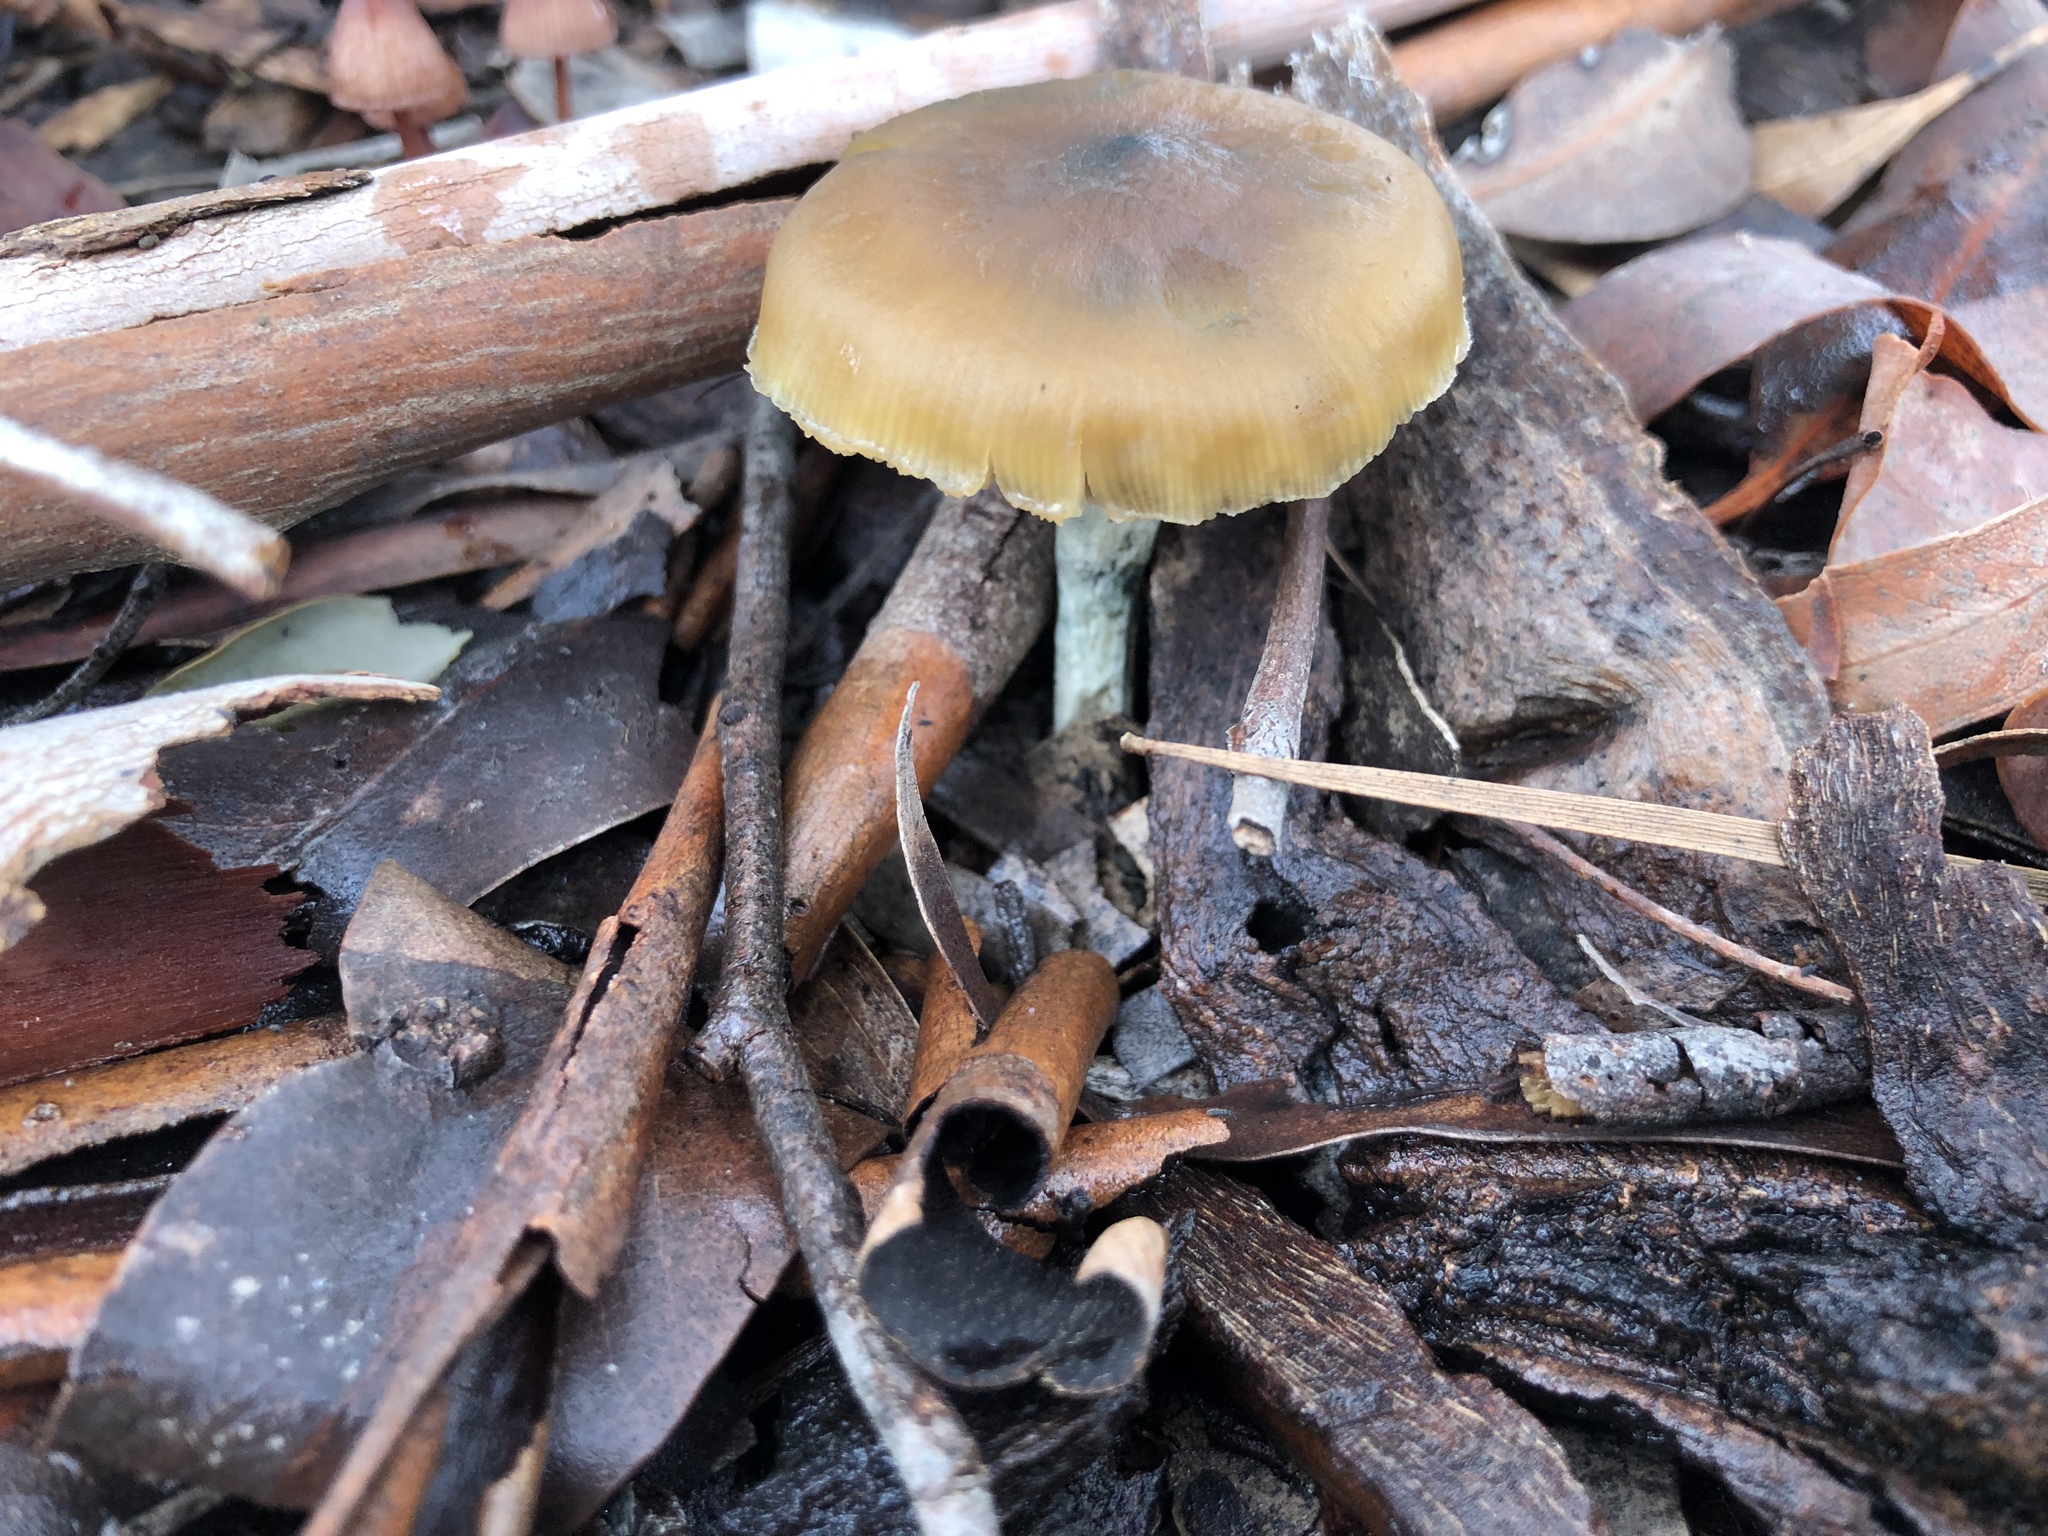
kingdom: Fungi
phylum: Basidiomycota
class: Agaricomycetes
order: Agaricales
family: Hymenogastraceae
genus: Psilocybe
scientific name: Psilocybe subaeruginosa
